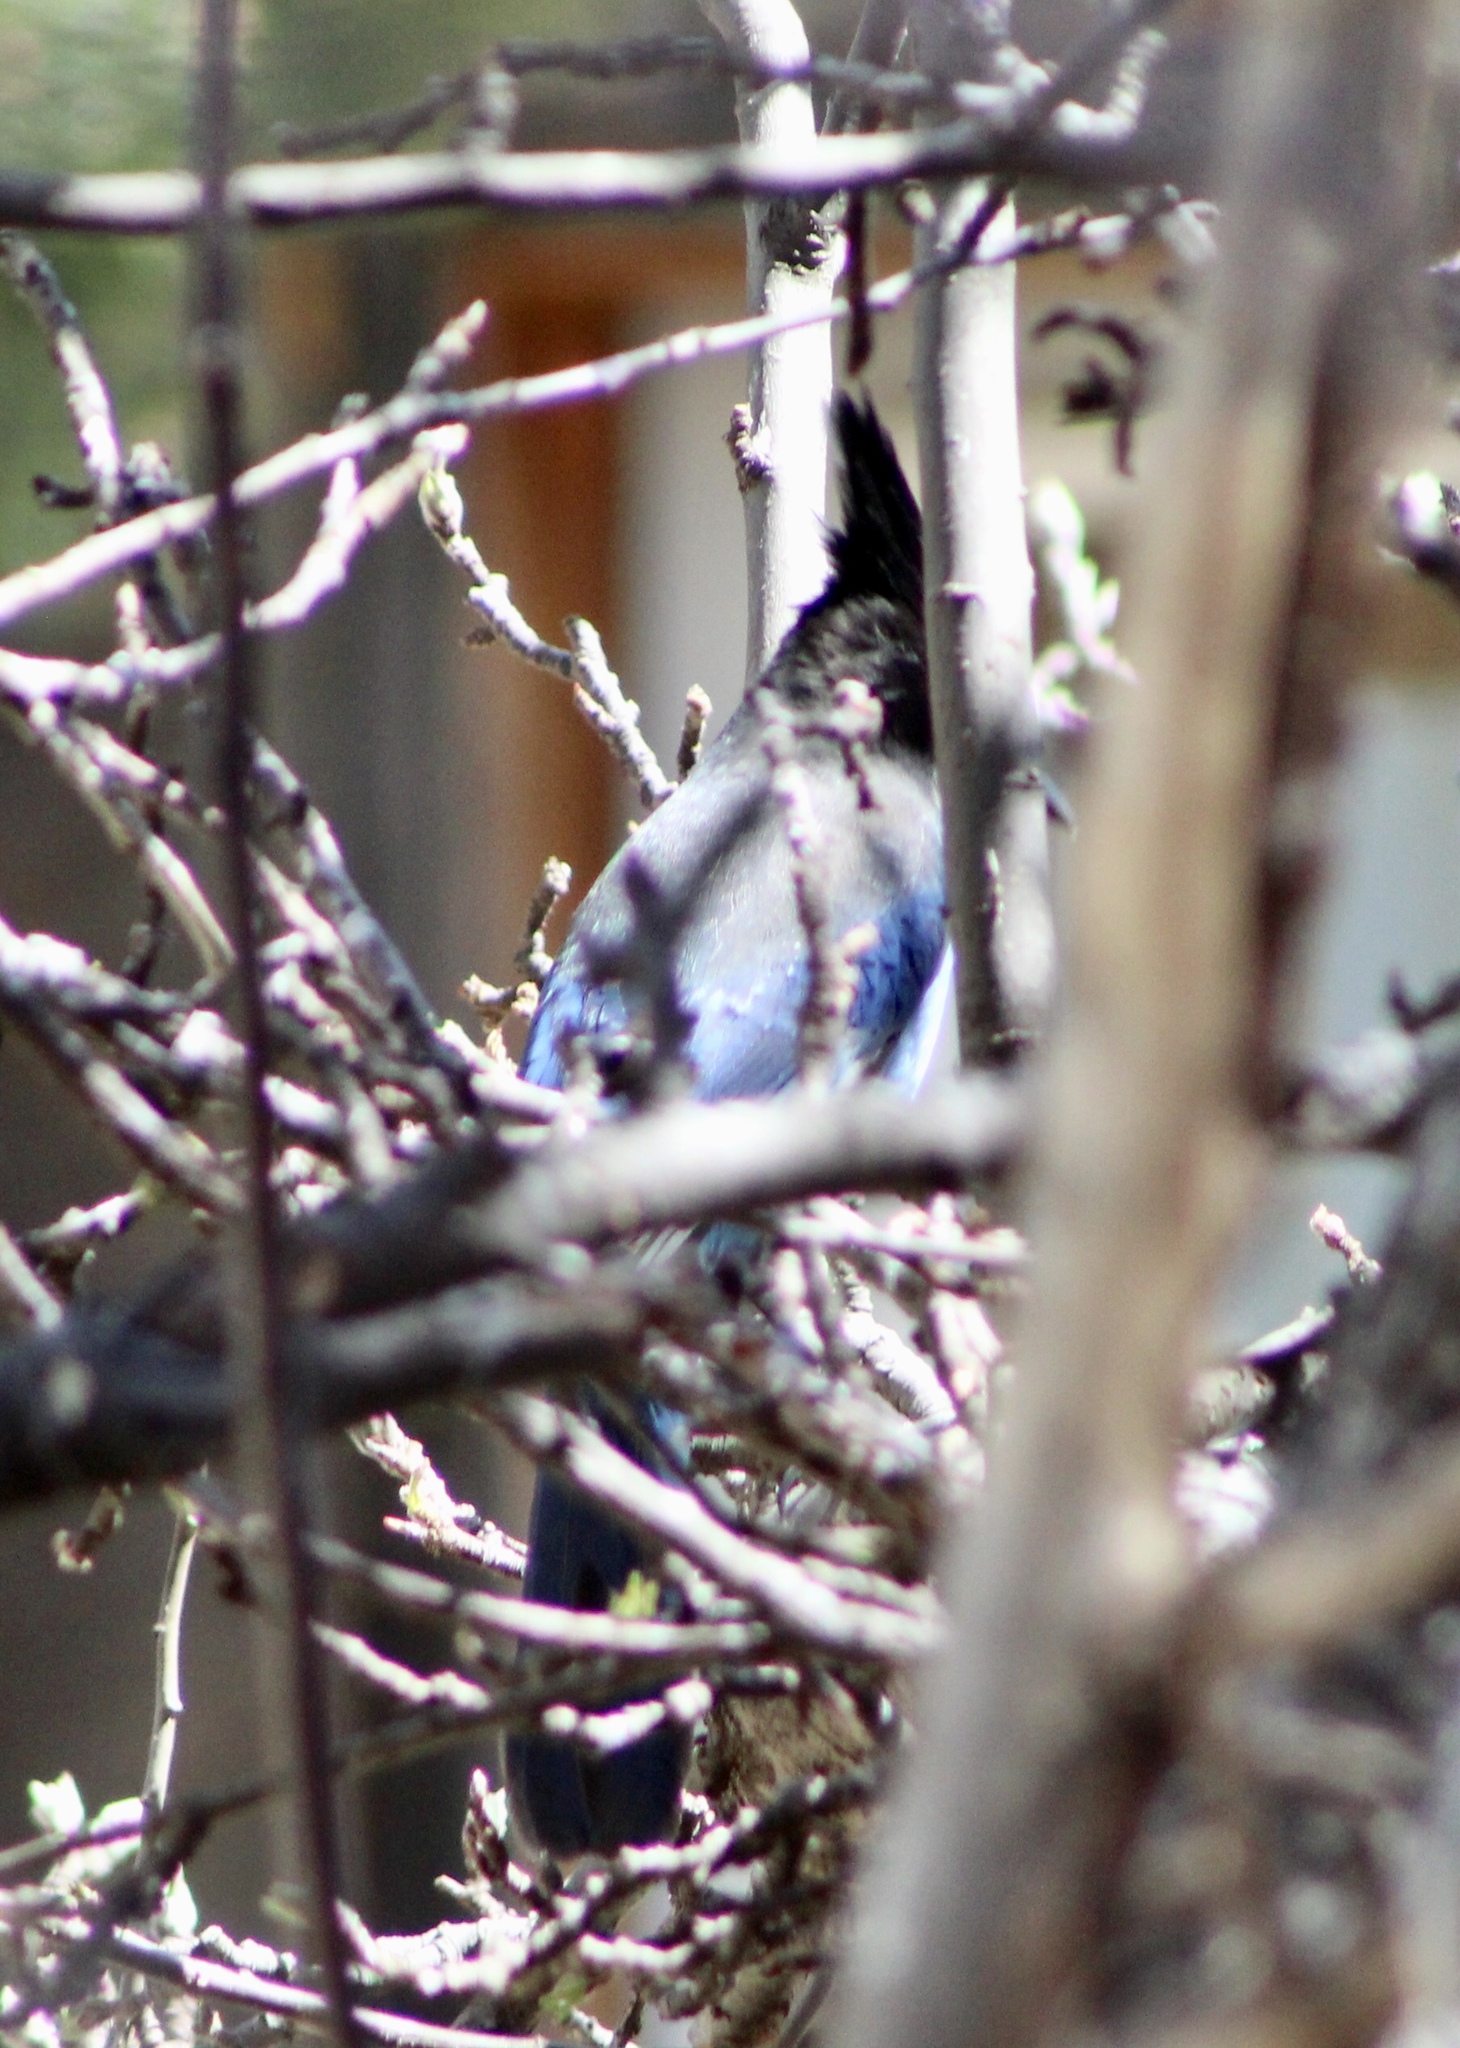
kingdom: Animalia
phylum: Chordata
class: Aves
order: Passeriformes
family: Corvidae
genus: Cyanocitta
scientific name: Cyanocitta stelleri
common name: Steller's jay
